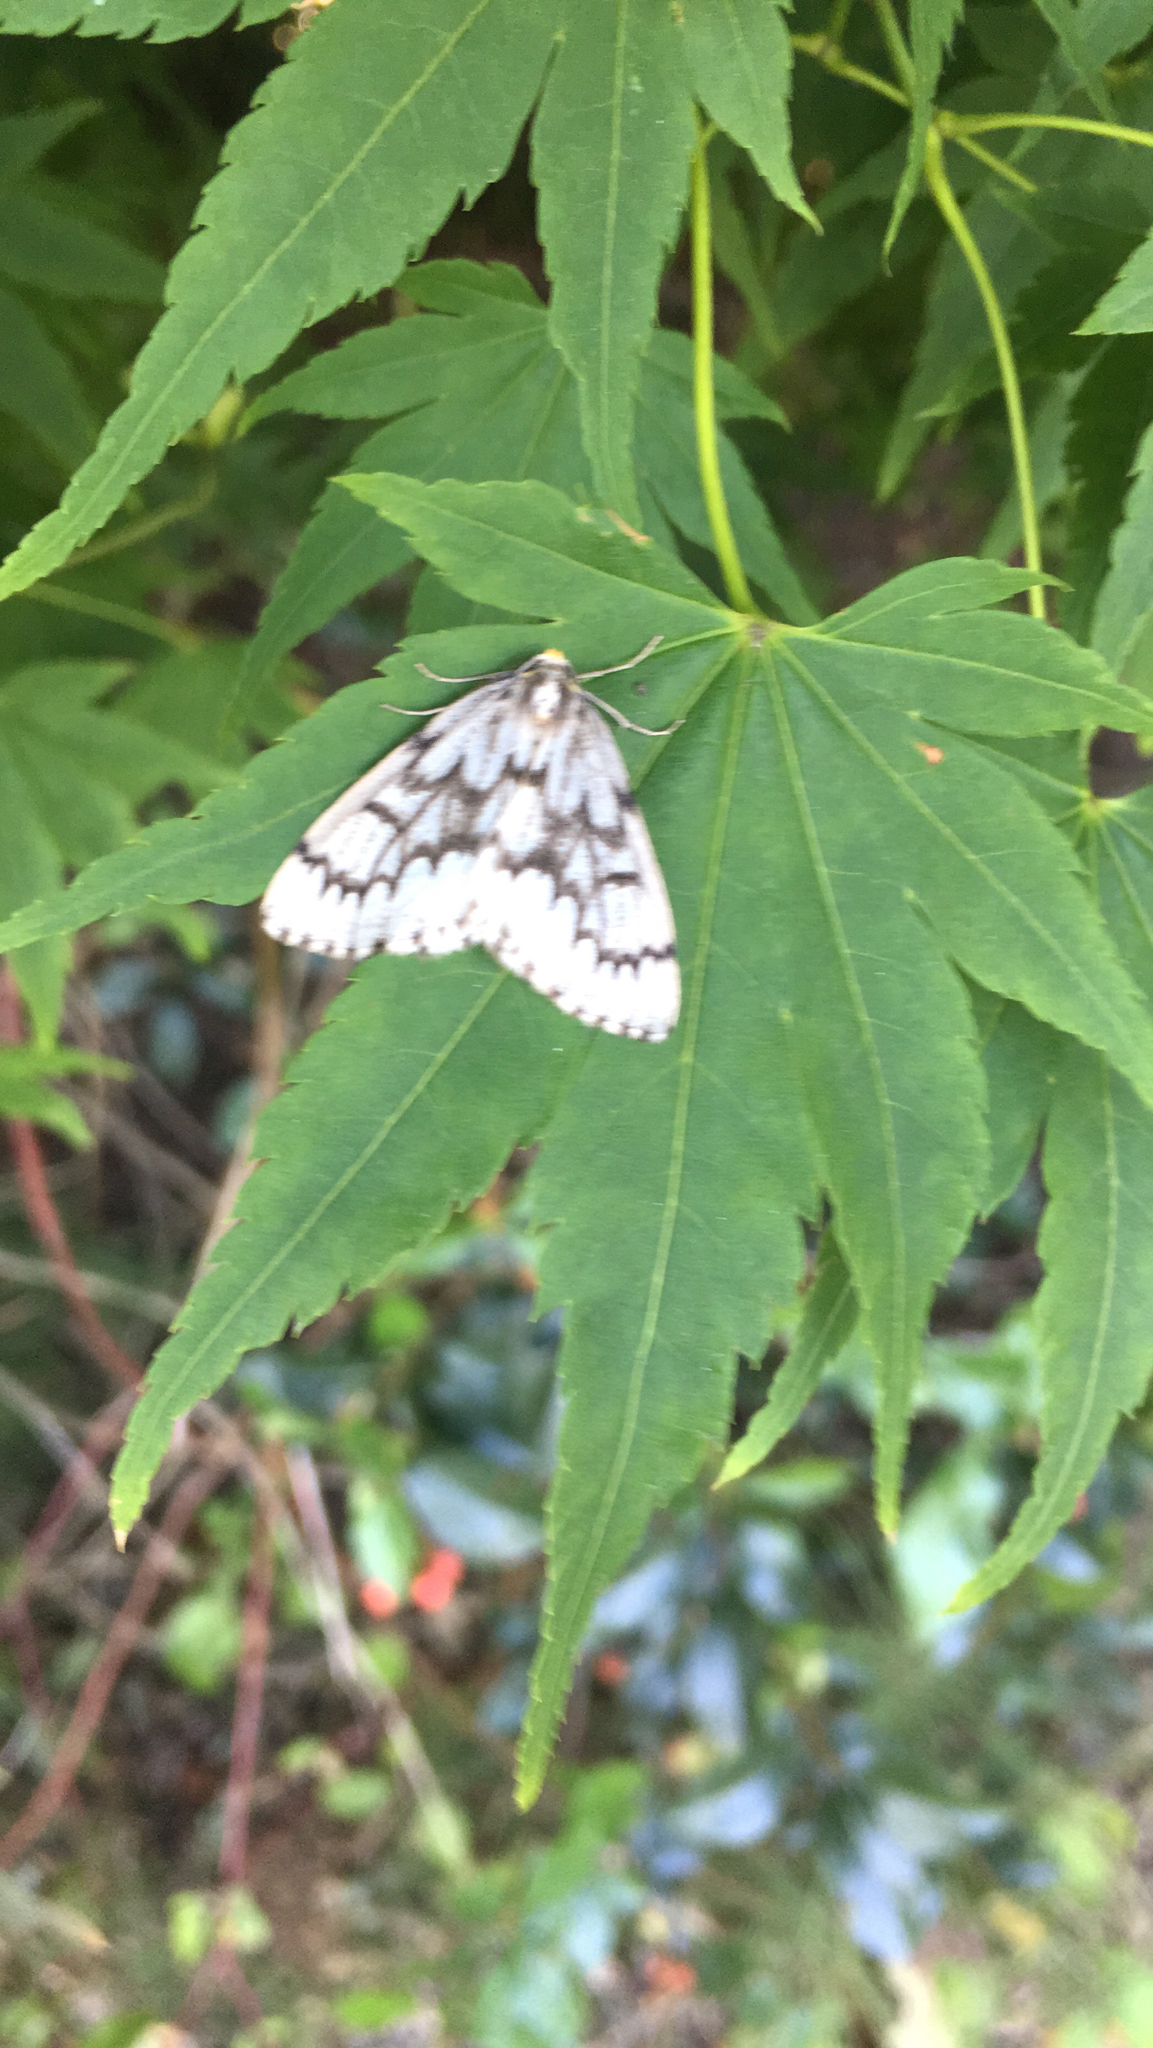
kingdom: Animalia
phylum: Arthropoda
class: Insecta
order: Lepidoptera
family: Geometridae
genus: Nepytia
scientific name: Nepytia phantasmaria
